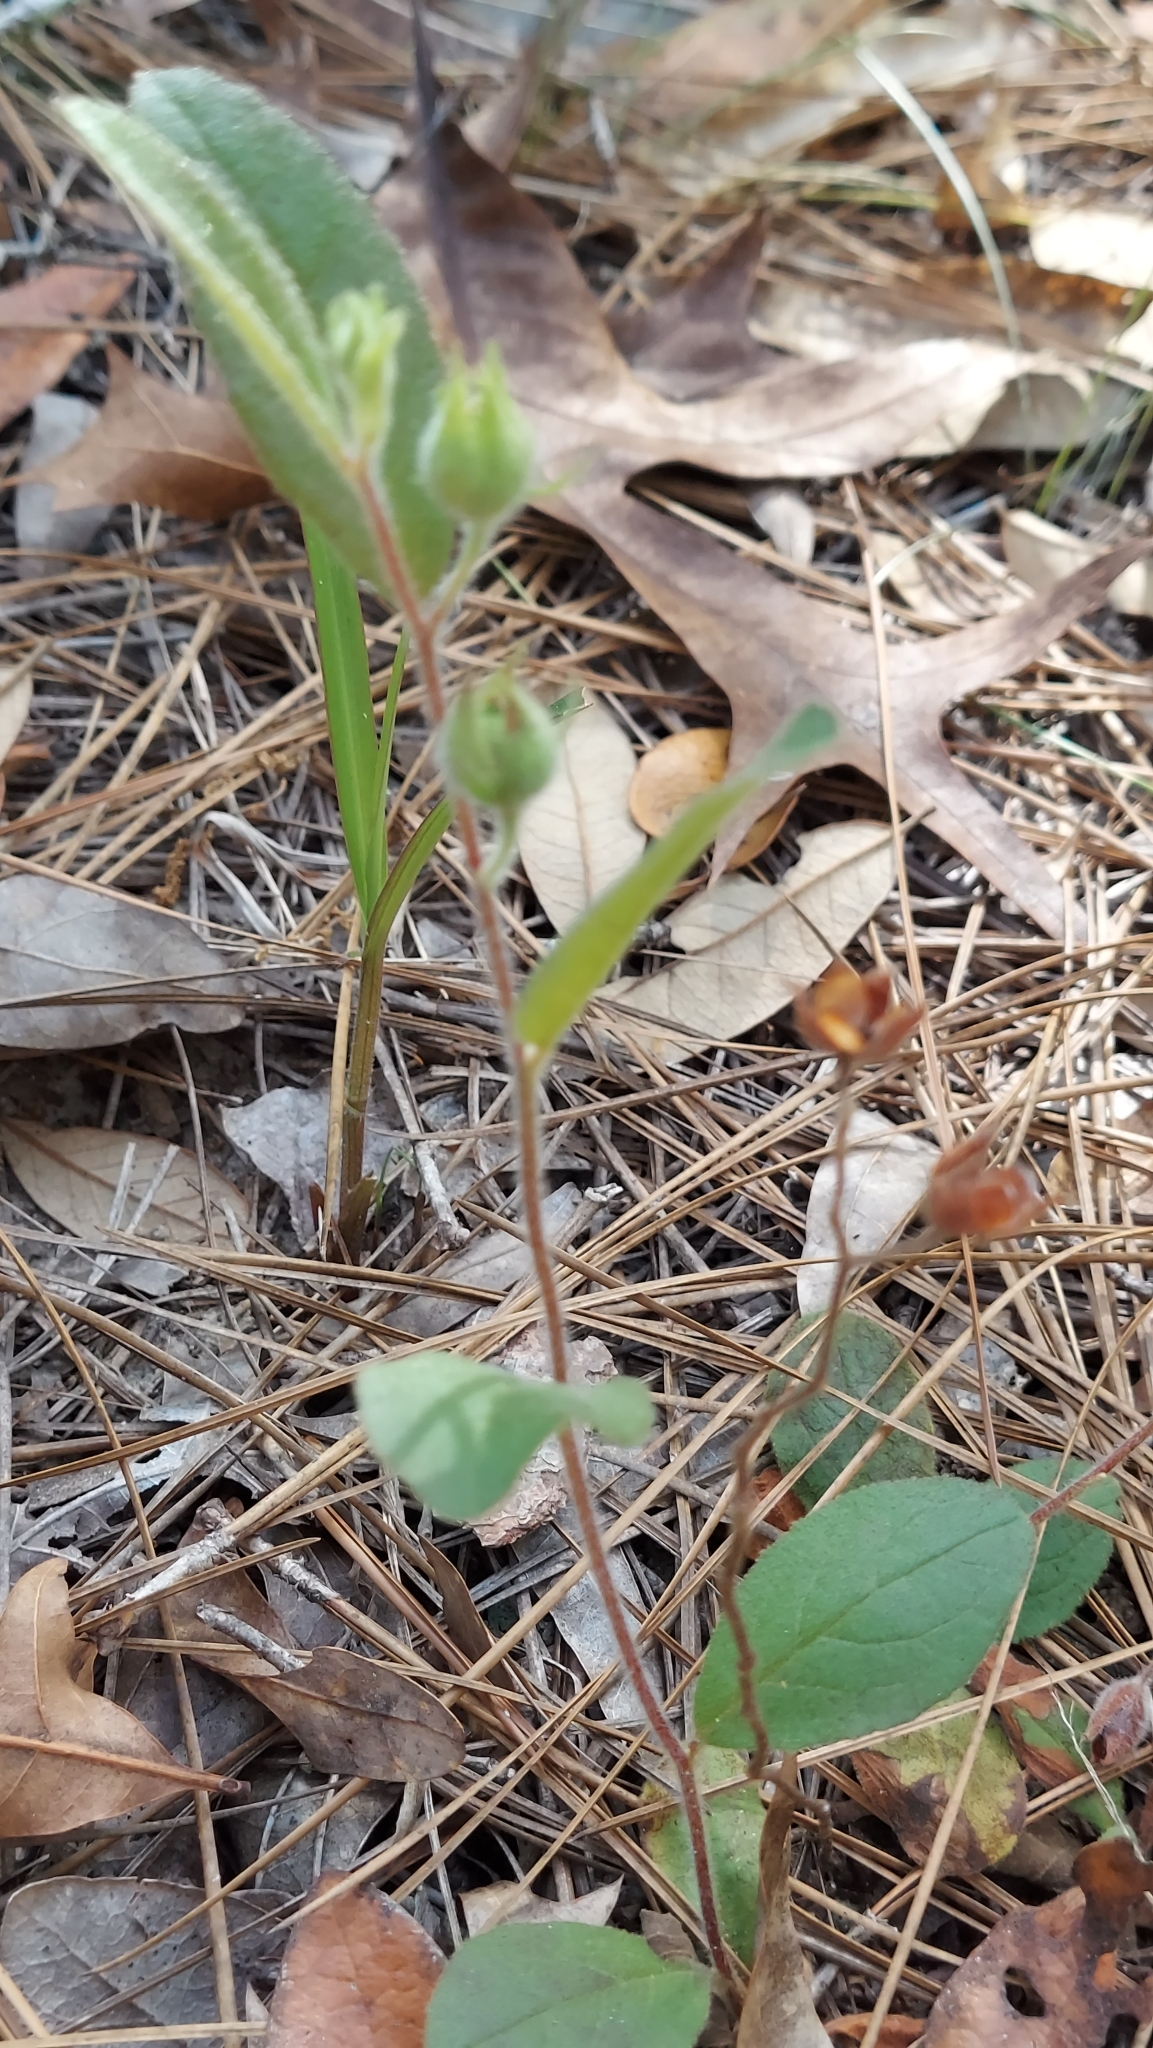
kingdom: Plantae
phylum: Tracheophyta
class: Magnoliopsida
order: Malvales
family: Cistaceae
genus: Crocanthemum
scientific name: Crocanthemum carolinianum
